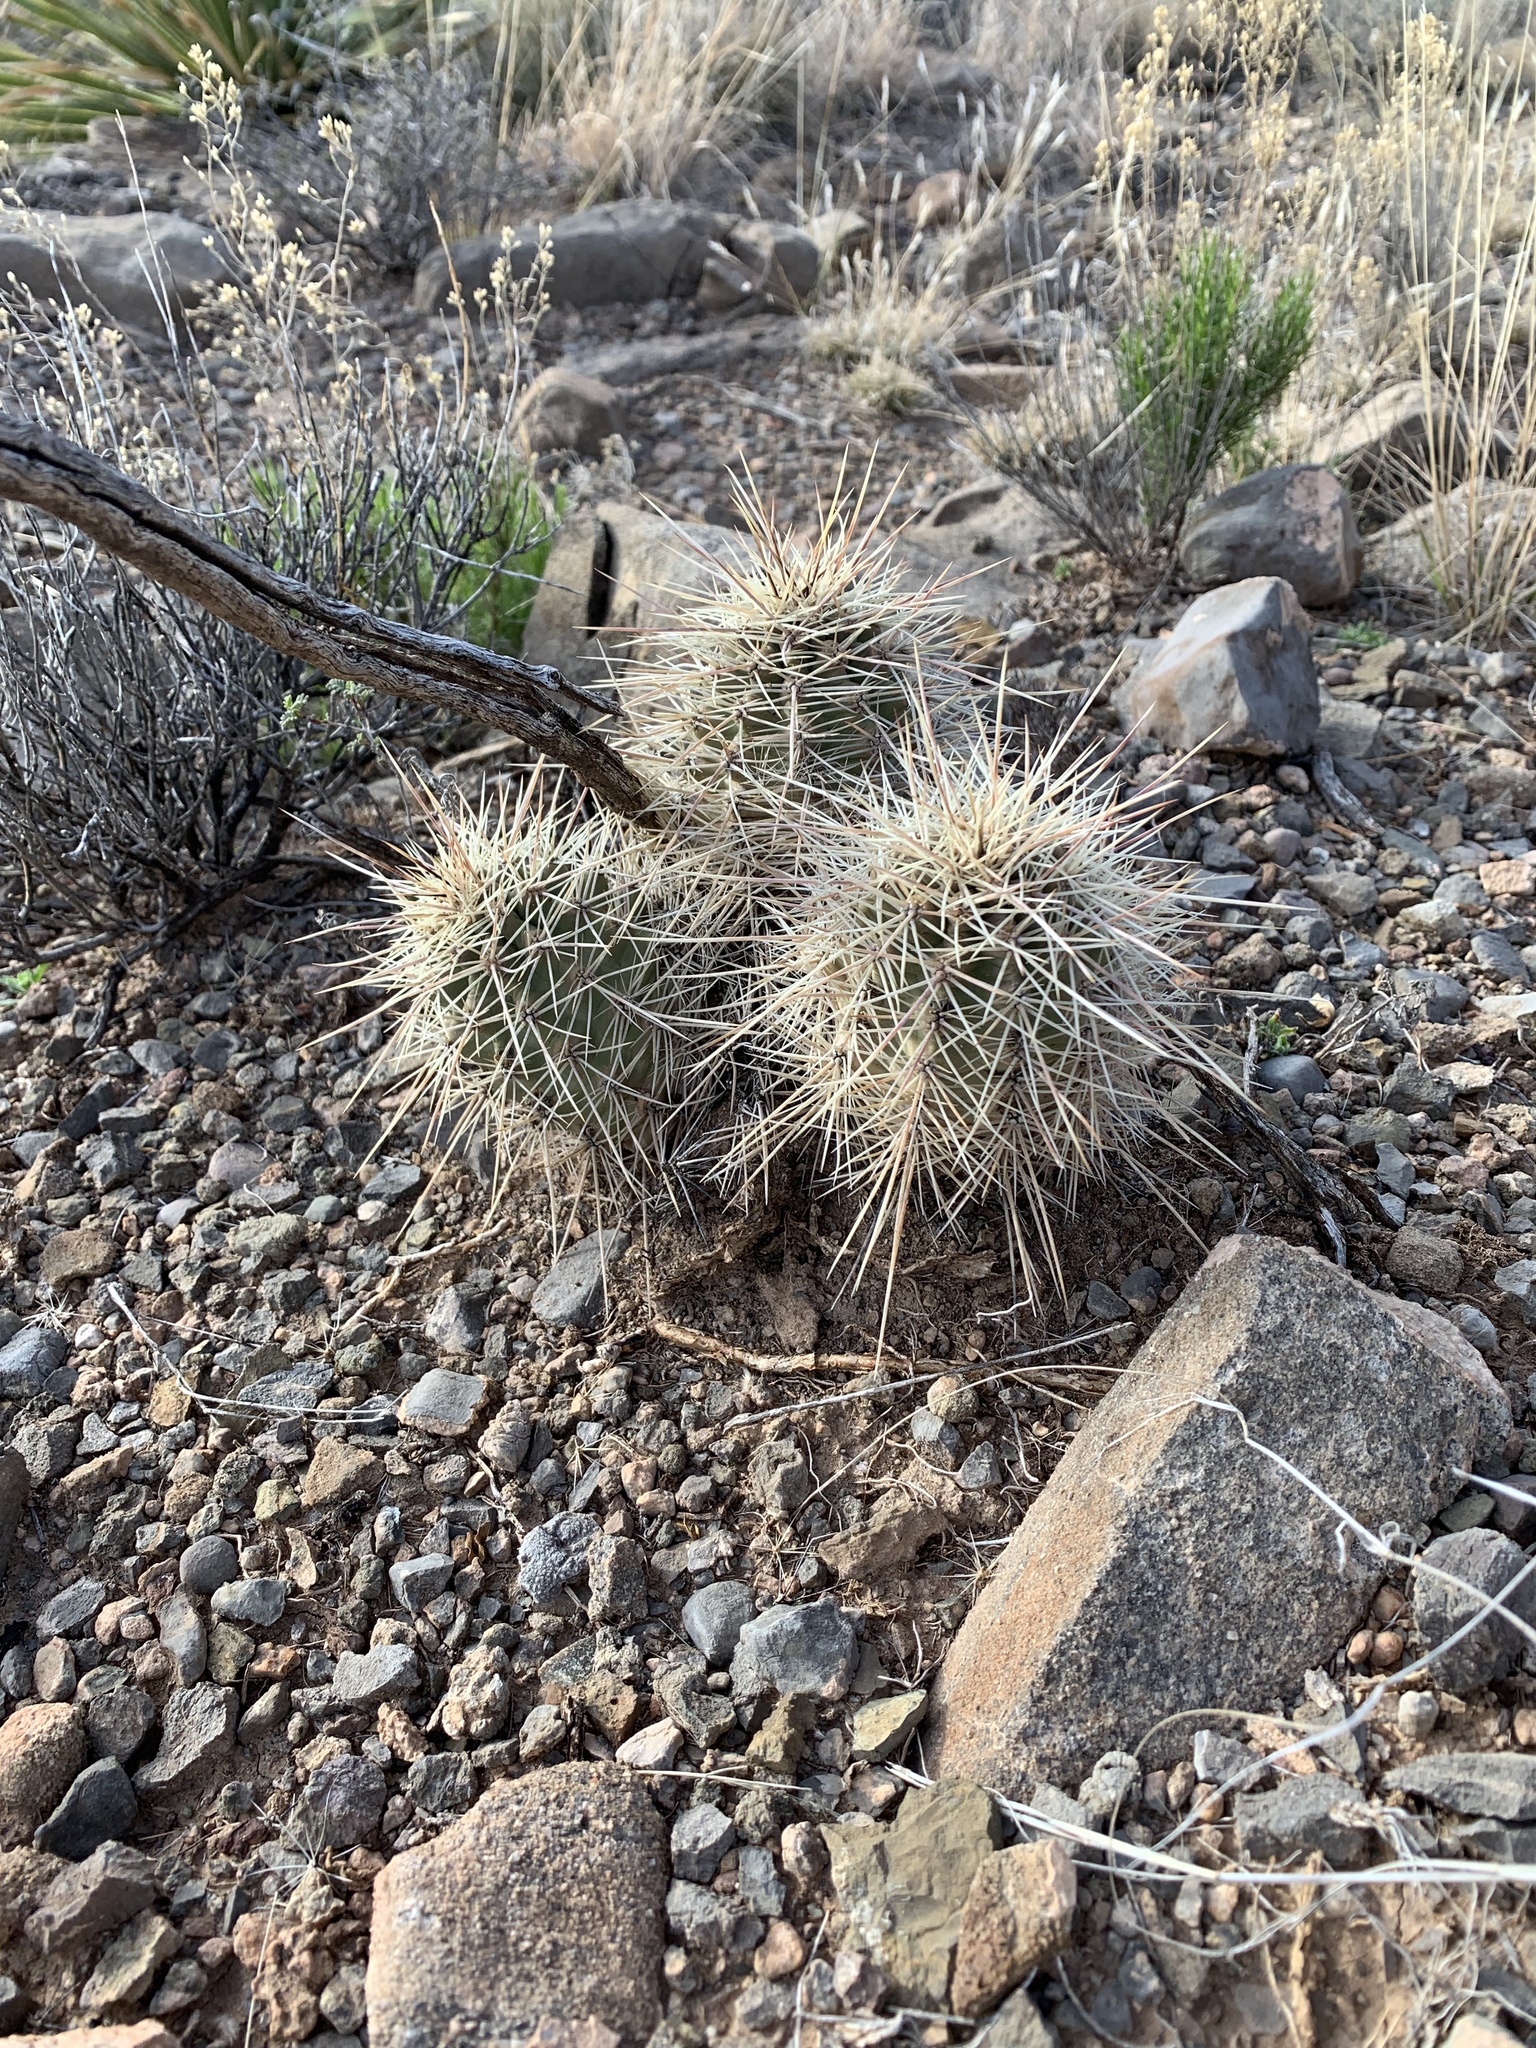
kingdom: Plantae
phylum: Tracheophyta
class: Magnoliopsida
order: Caryophyllales
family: Cactaceae
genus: Echinocereus
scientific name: Echinocereus coccineus
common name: Scarlet hedgehog cactus
